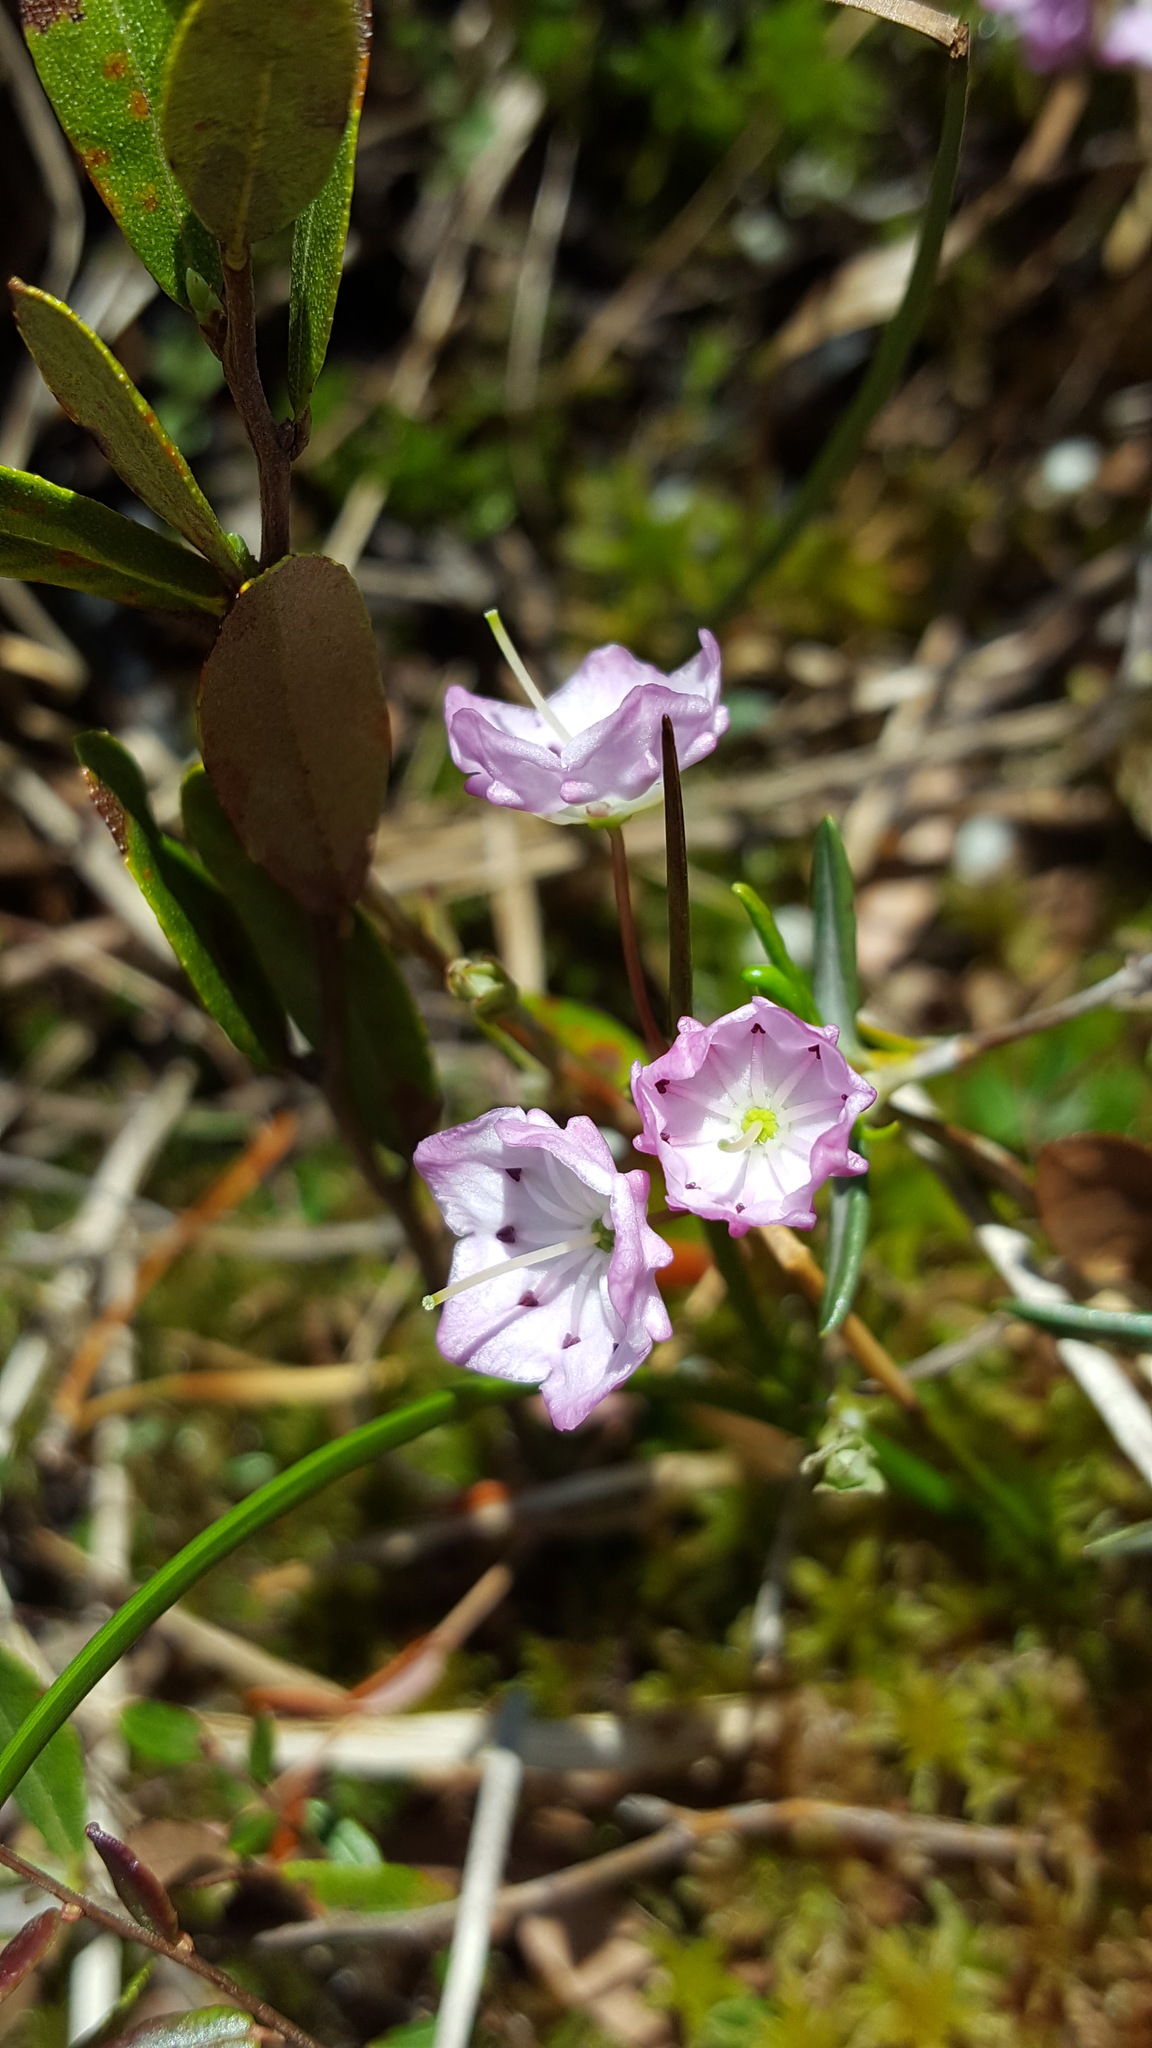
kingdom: Plantae
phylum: Tracheophyta
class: Magnoliopsida
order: Ericales
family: Ericaceae
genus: Kalmia
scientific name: Kalmia polifolia
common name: Bog-laurel
